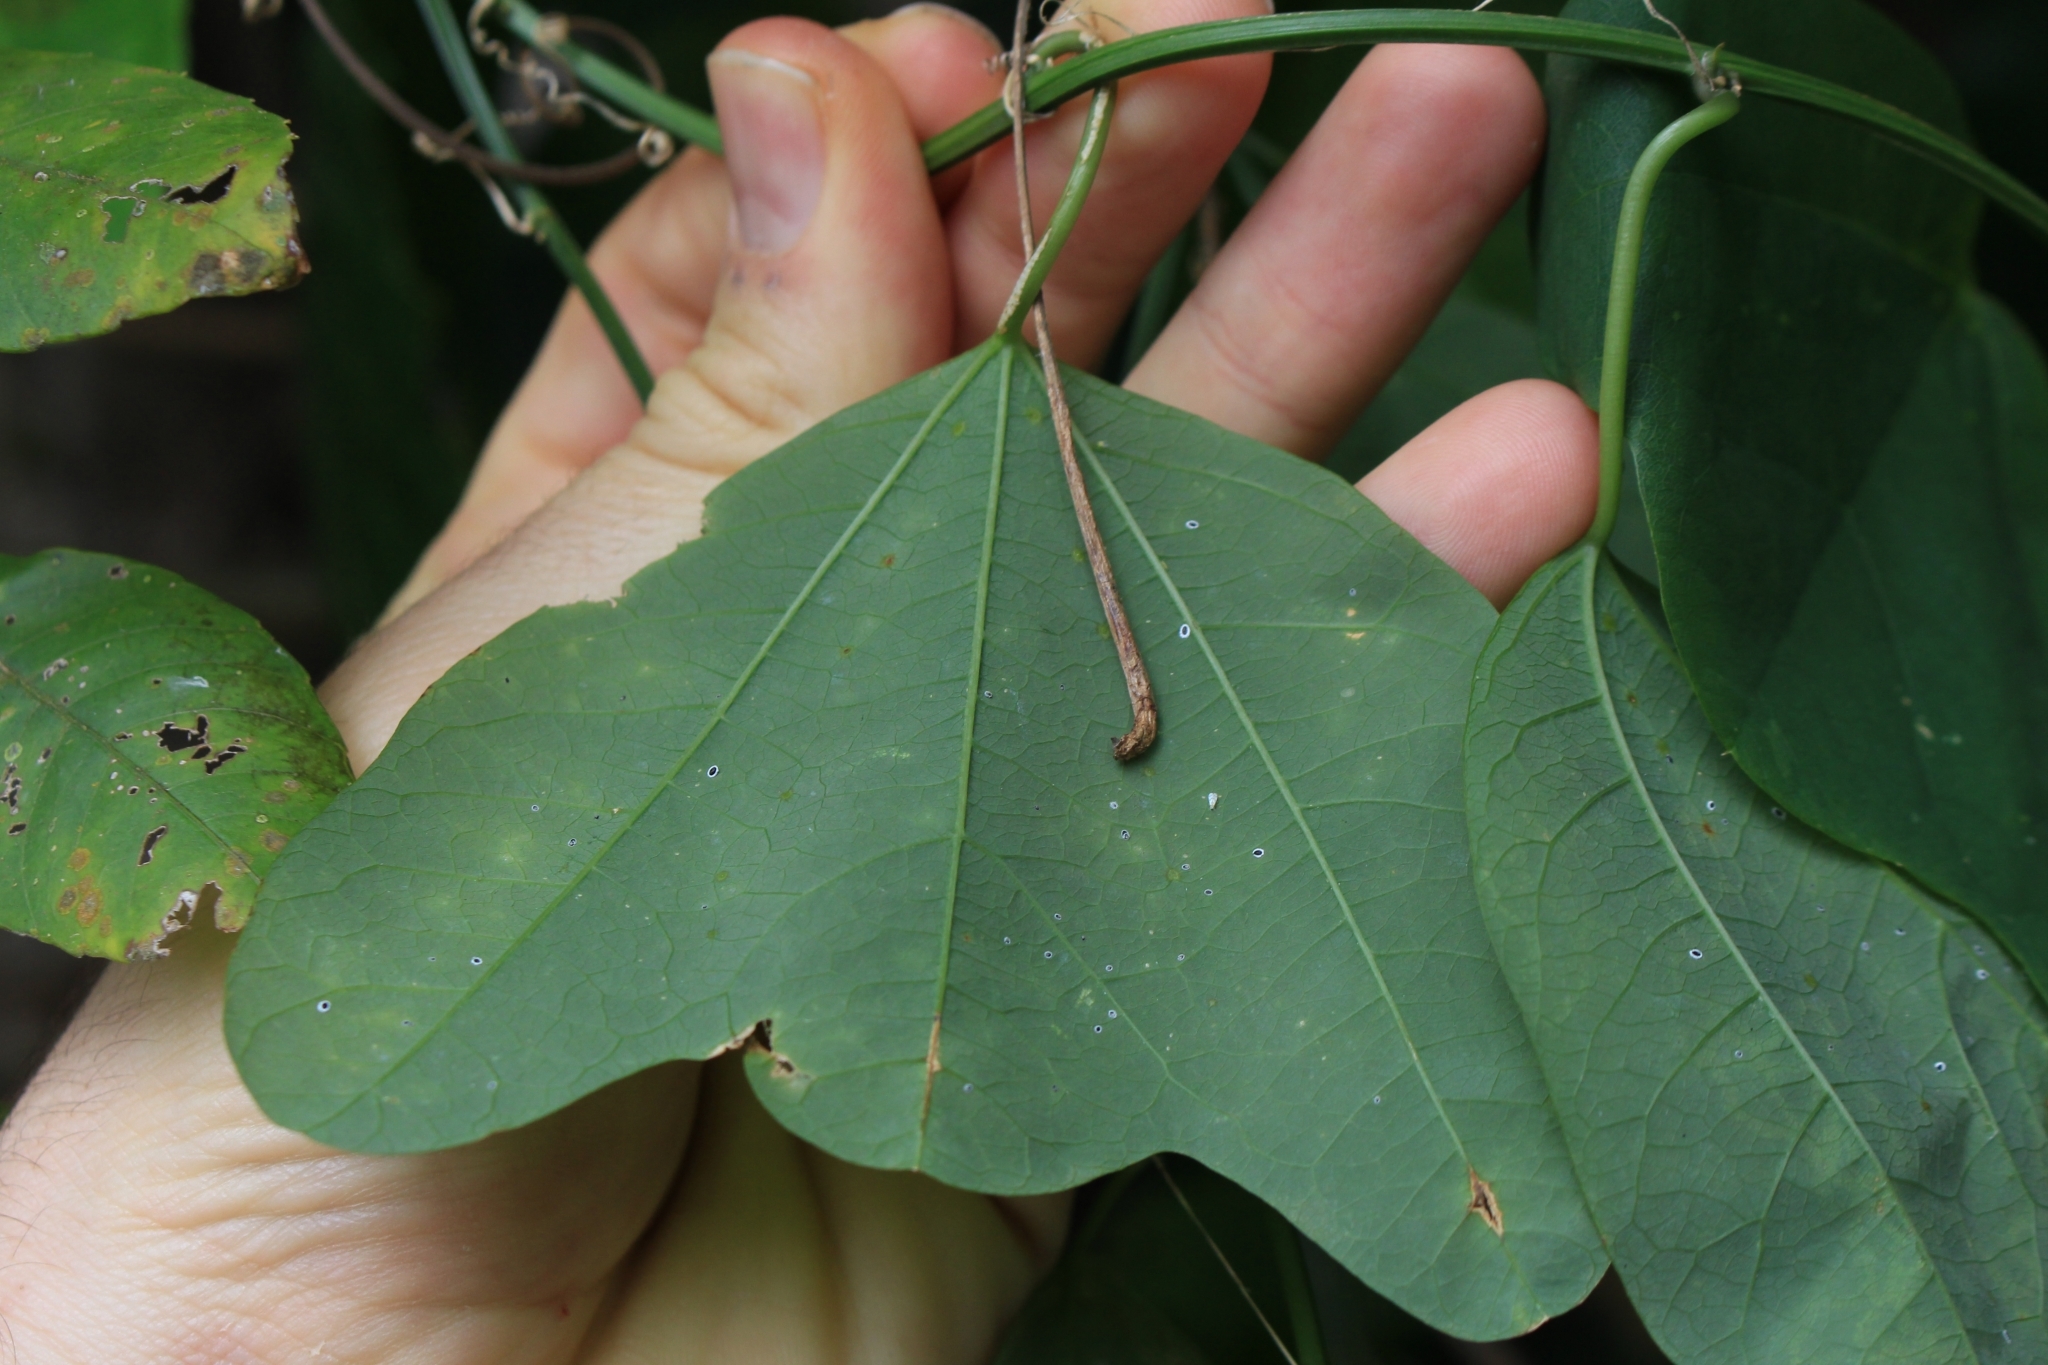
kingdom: Plantae
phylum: Tracheophyta
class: Magnoliopsida
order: Malpighiales
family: Passifloraceae
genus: Passiflora
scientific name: Passiflora biflora
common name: Twoflower passionflower
